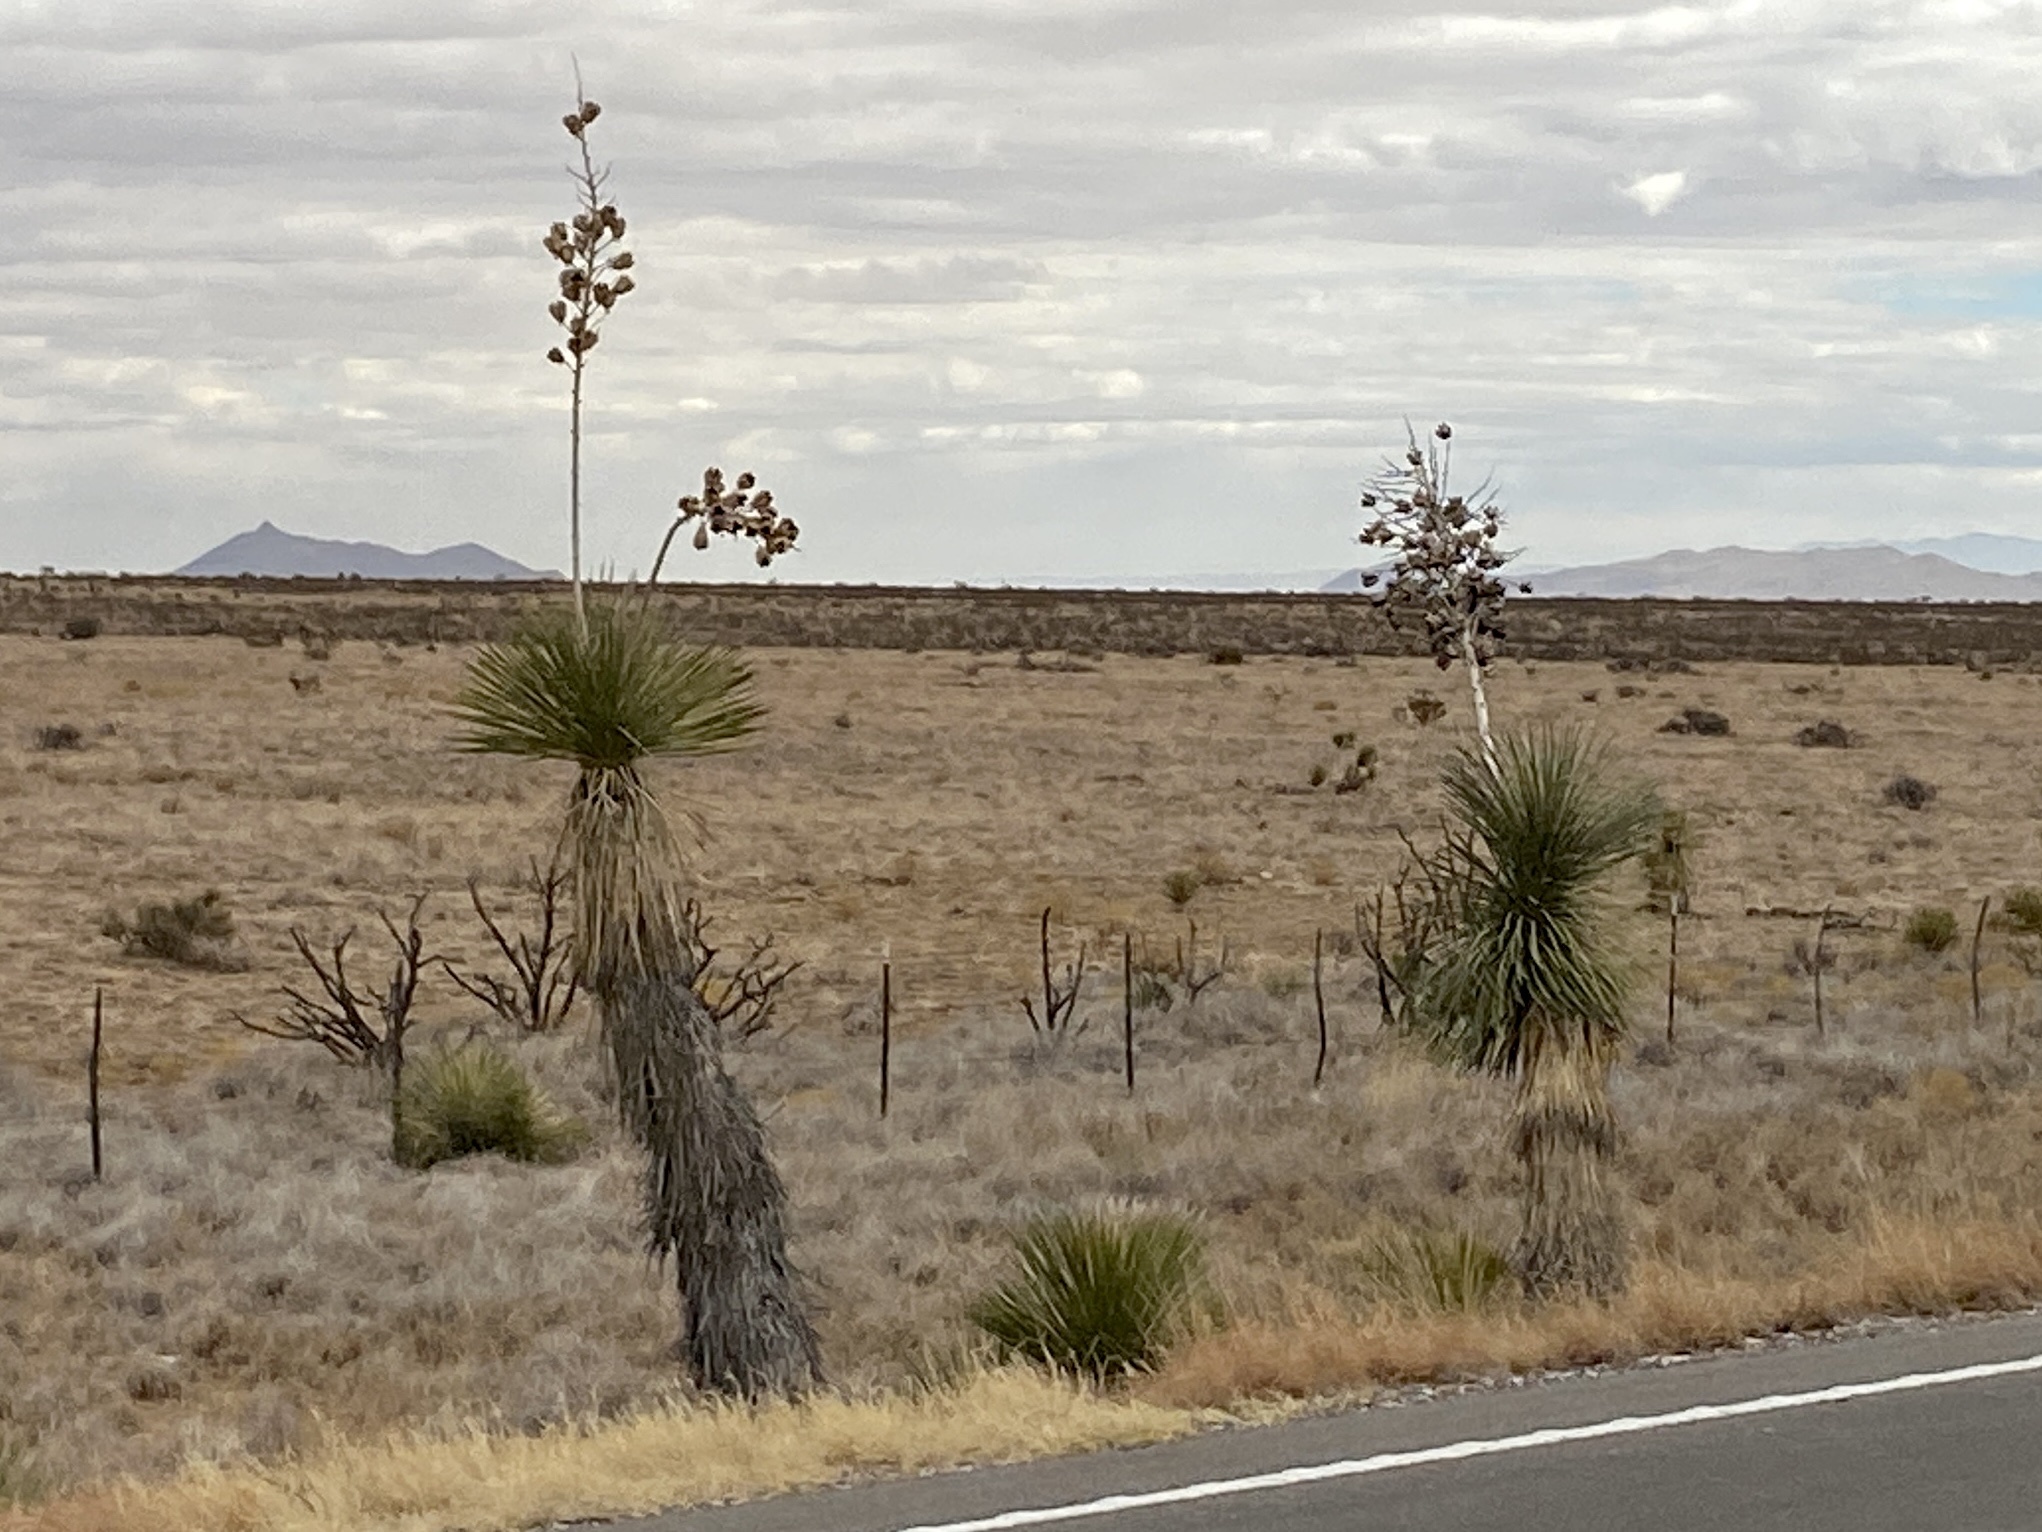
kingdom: Plantae
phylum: Tracheophyta
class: Liliopsida
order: Asparagales
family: Asparagaceae
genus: Yucca
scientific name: Yucca elata
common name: Palmella
